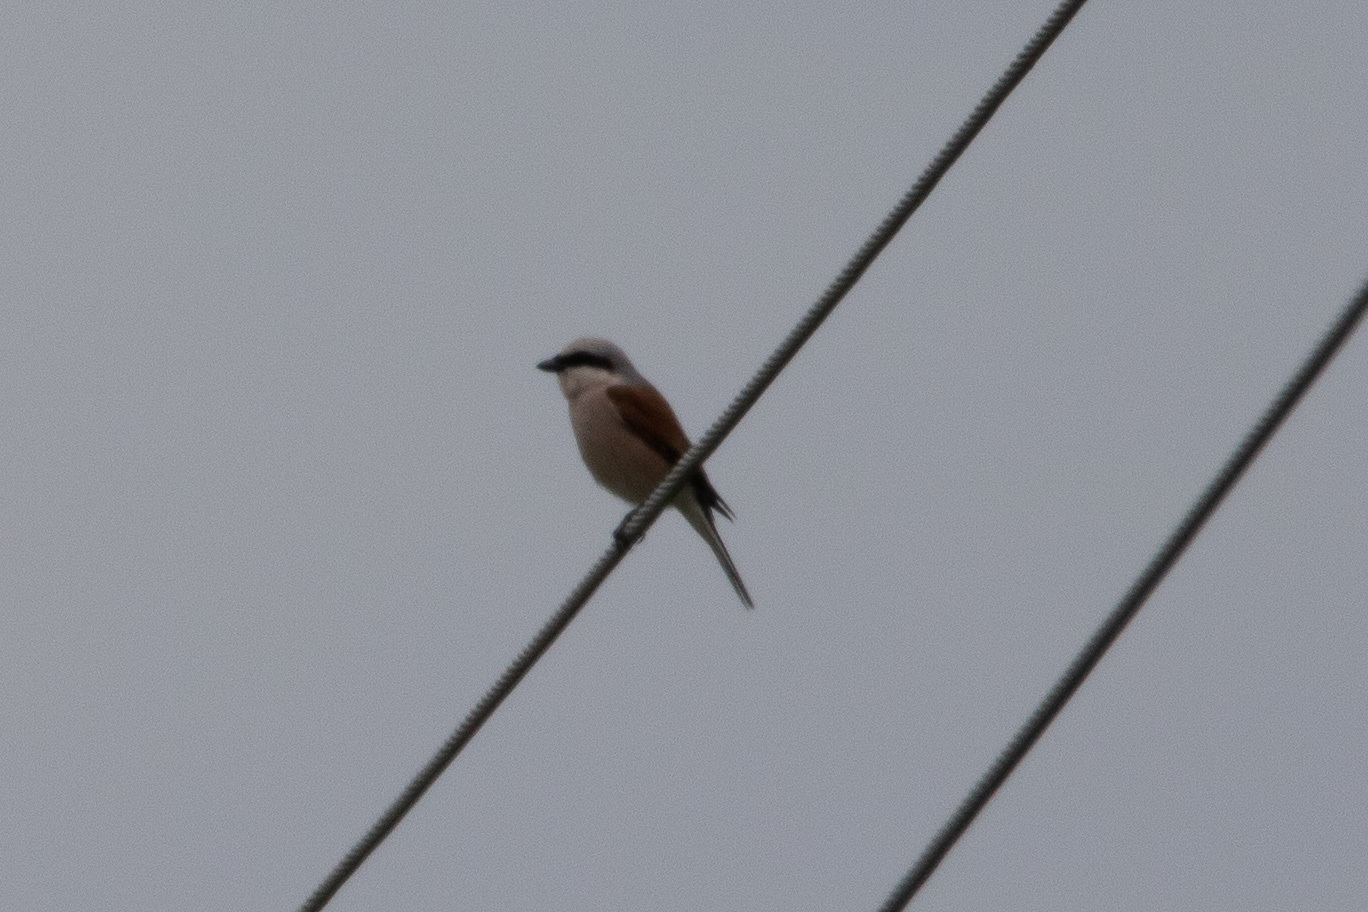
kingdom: Animalia
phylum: Chordata
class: Aves
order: Passeriformes
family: Laniidae
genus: Lanius
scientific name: Lanius collurio
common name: Red-backed shrike
